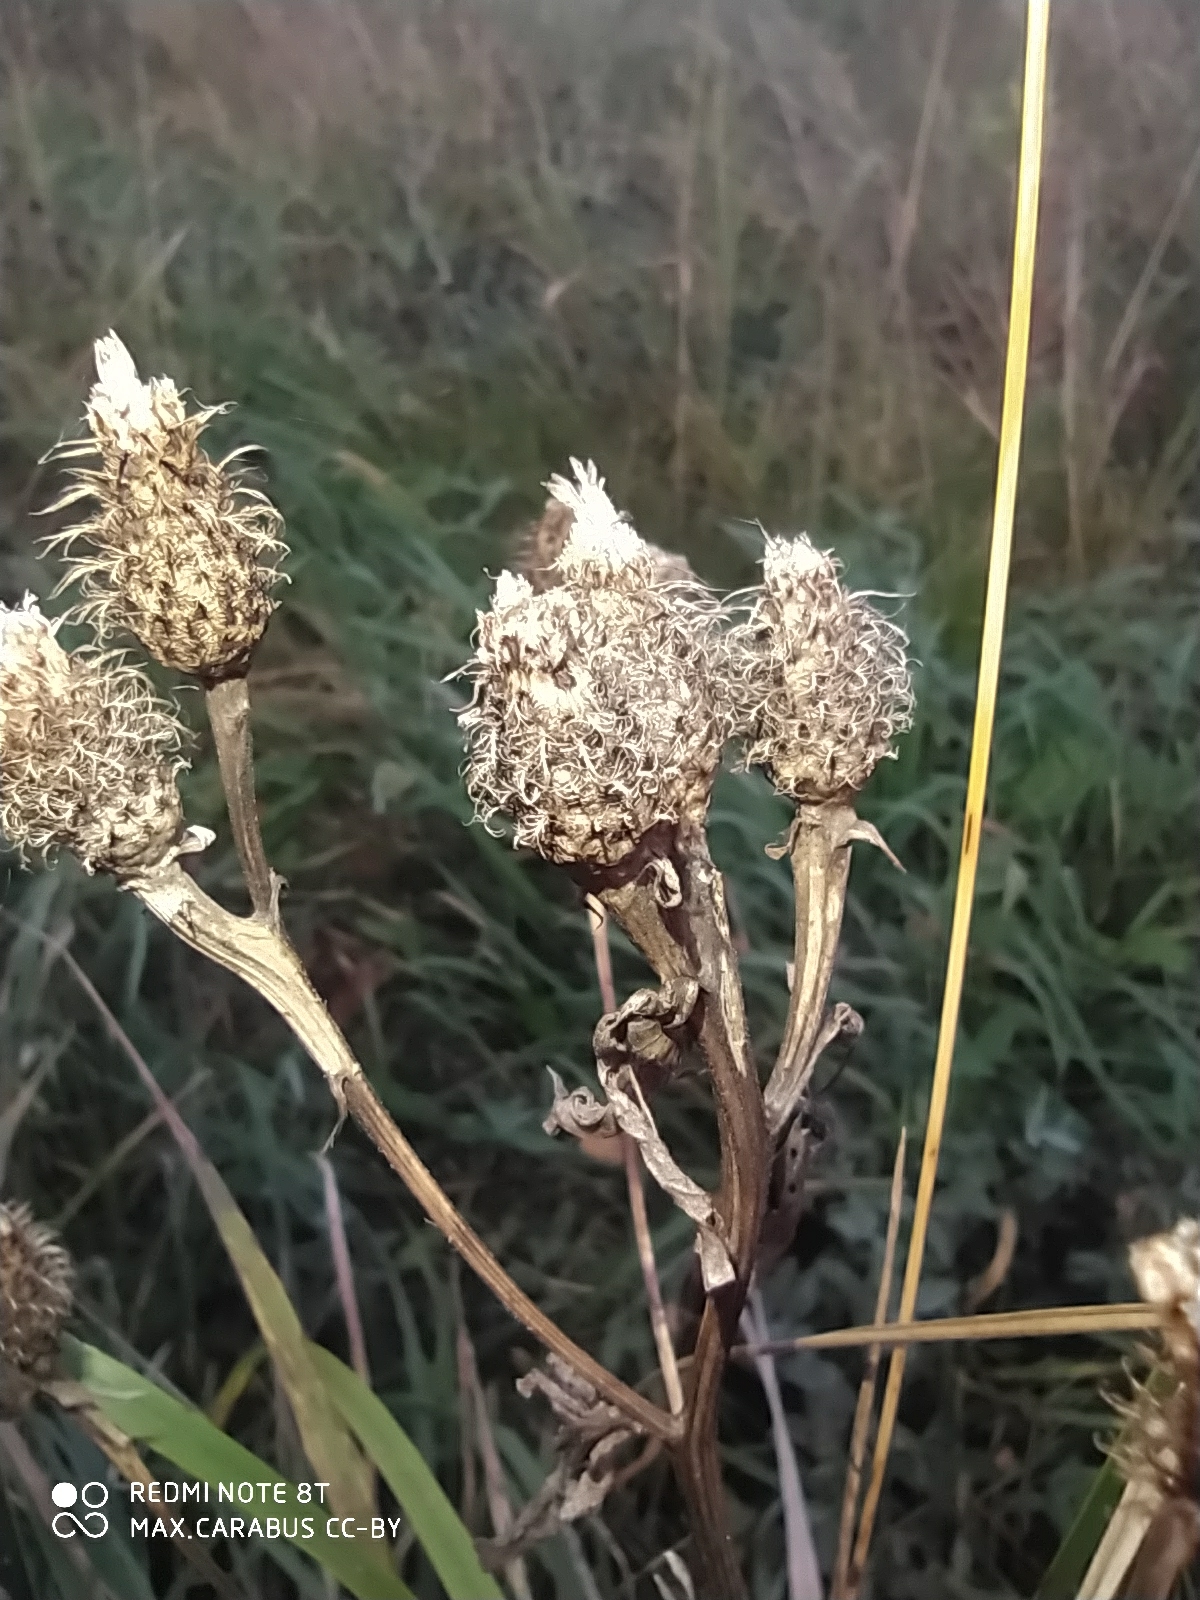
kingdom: Plantae
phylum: Tracheophyta
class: Magnoliopsida
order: Asterales
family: Asteraceae
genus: Centaurea
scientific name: Centaurea phrygia
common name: Wig knapweed
